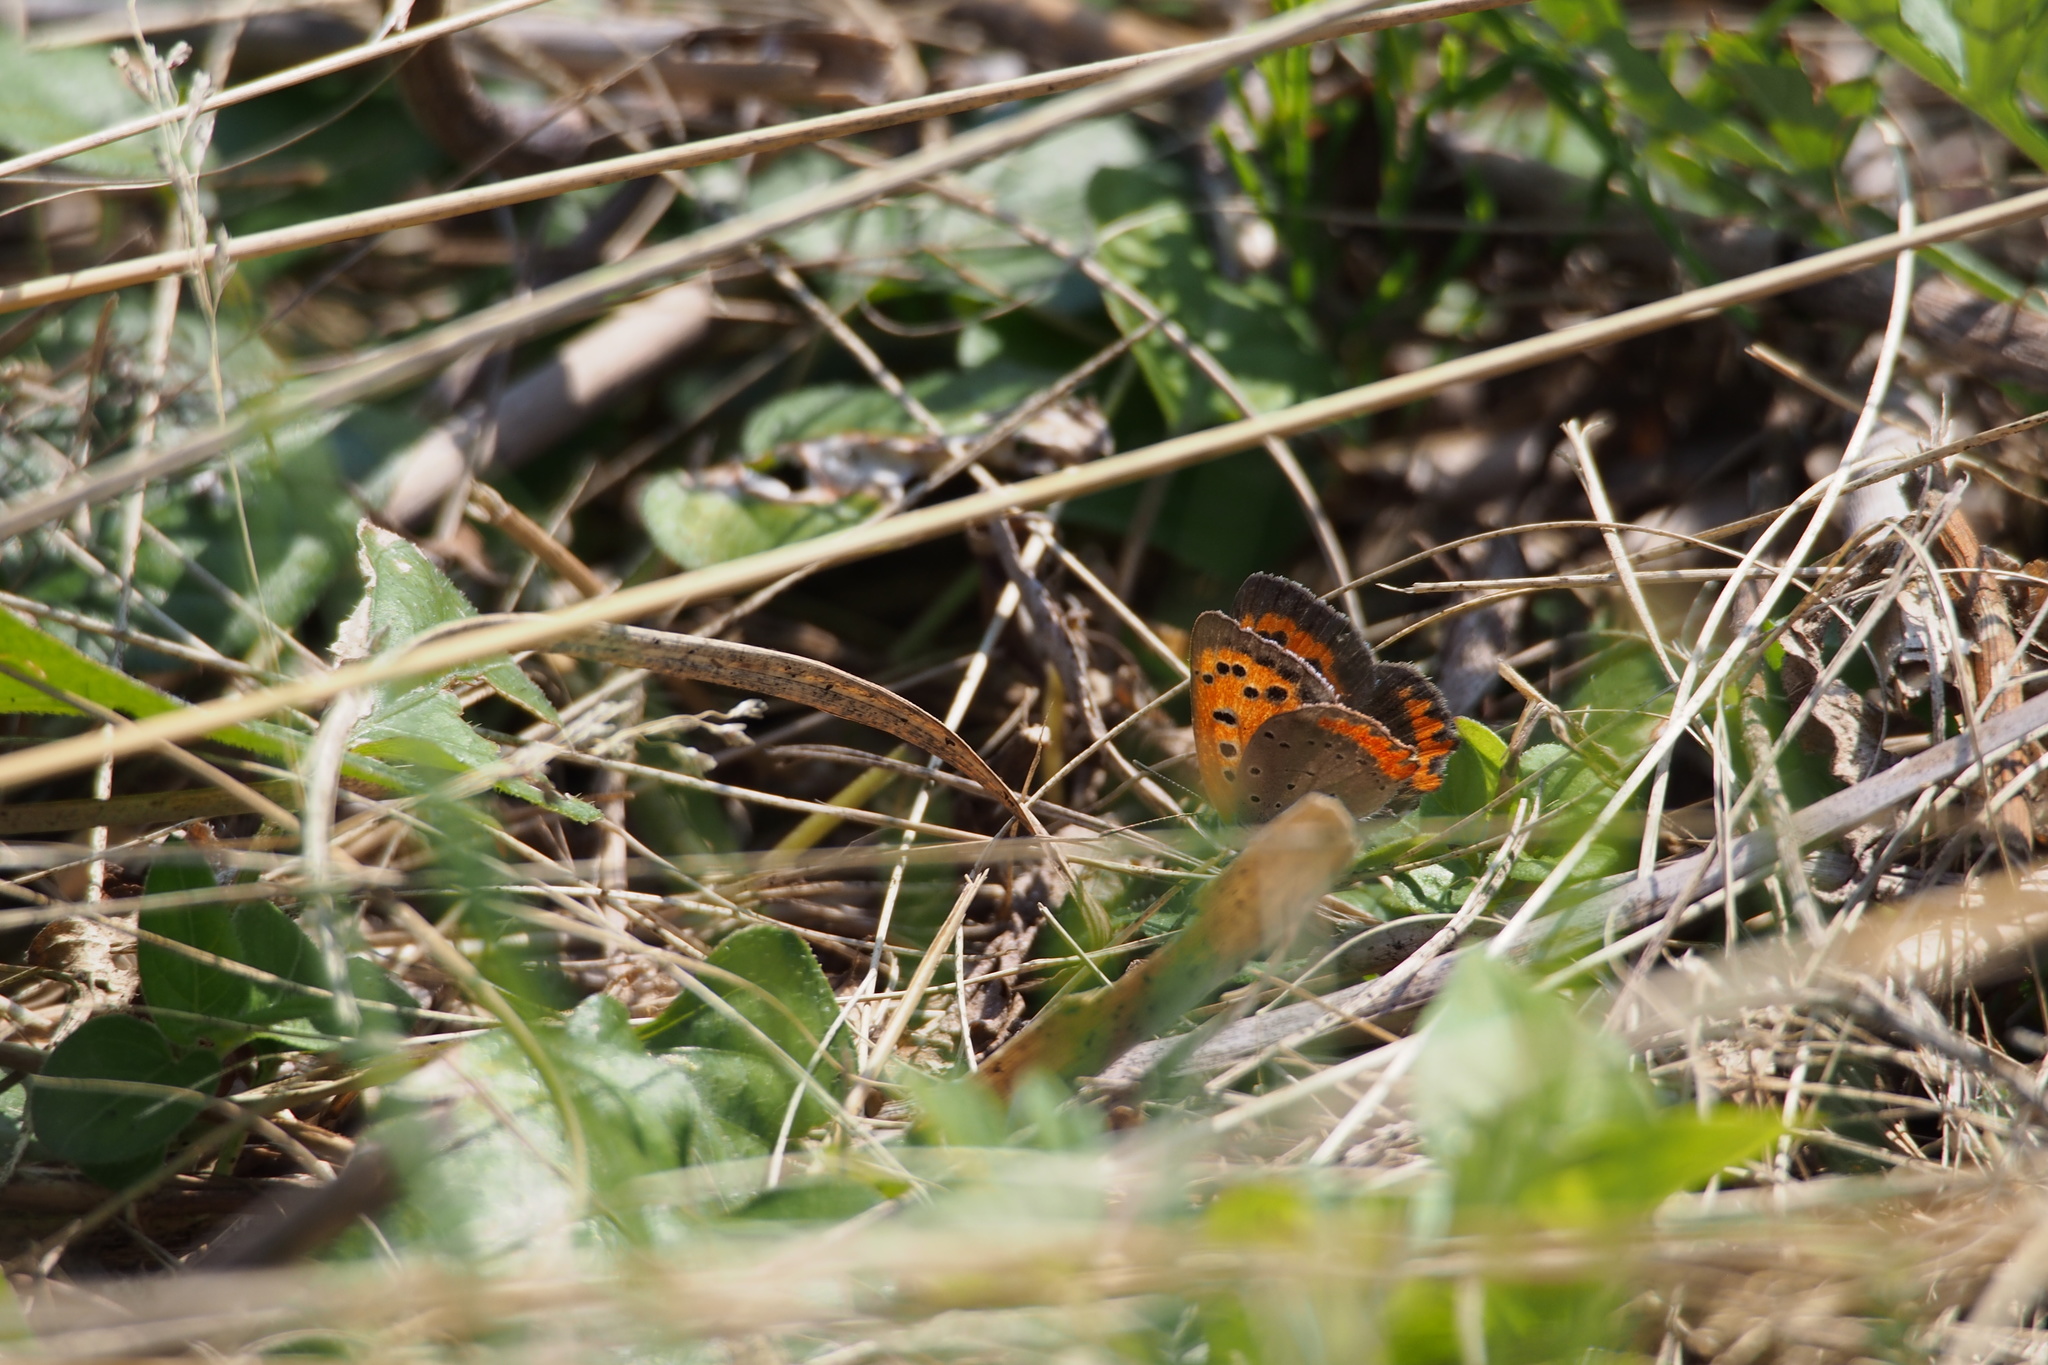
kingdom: Animalia
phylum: Arthropoda
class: Insecta
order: Lepidoptera
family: Lycaenidae
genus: Lycaena
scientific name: Lycaena phlaeas
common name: Small copper
